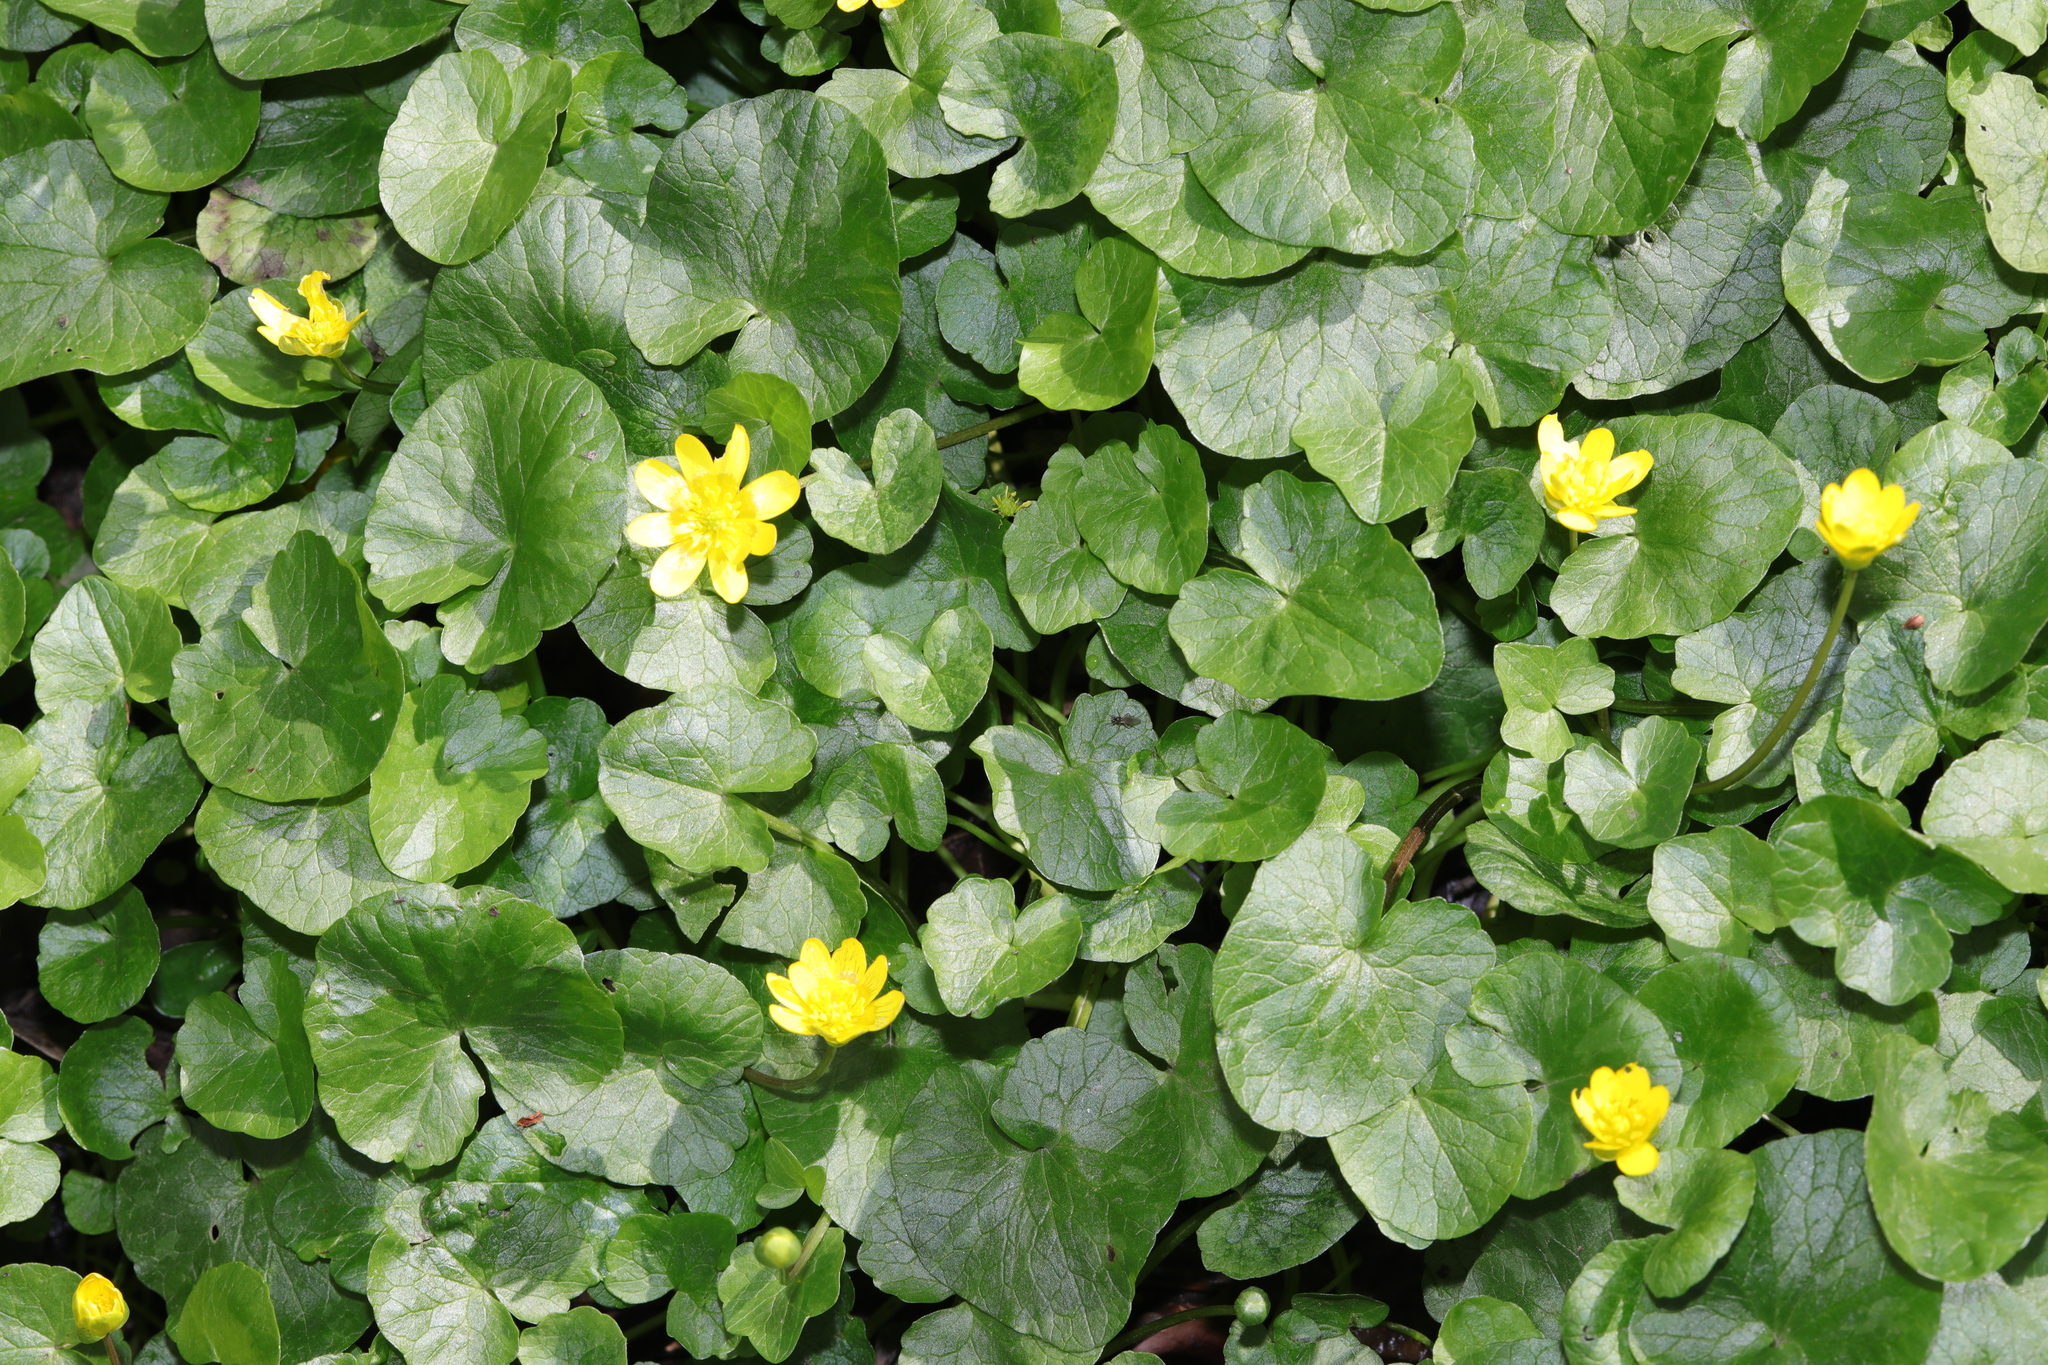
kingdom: Plantae
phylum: Tracheophyta
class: Magnoliopsida
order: Ranunculales
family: Ranunculaceae
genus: Ficaria
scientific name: Ficaria verna
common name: Lesser celandine
